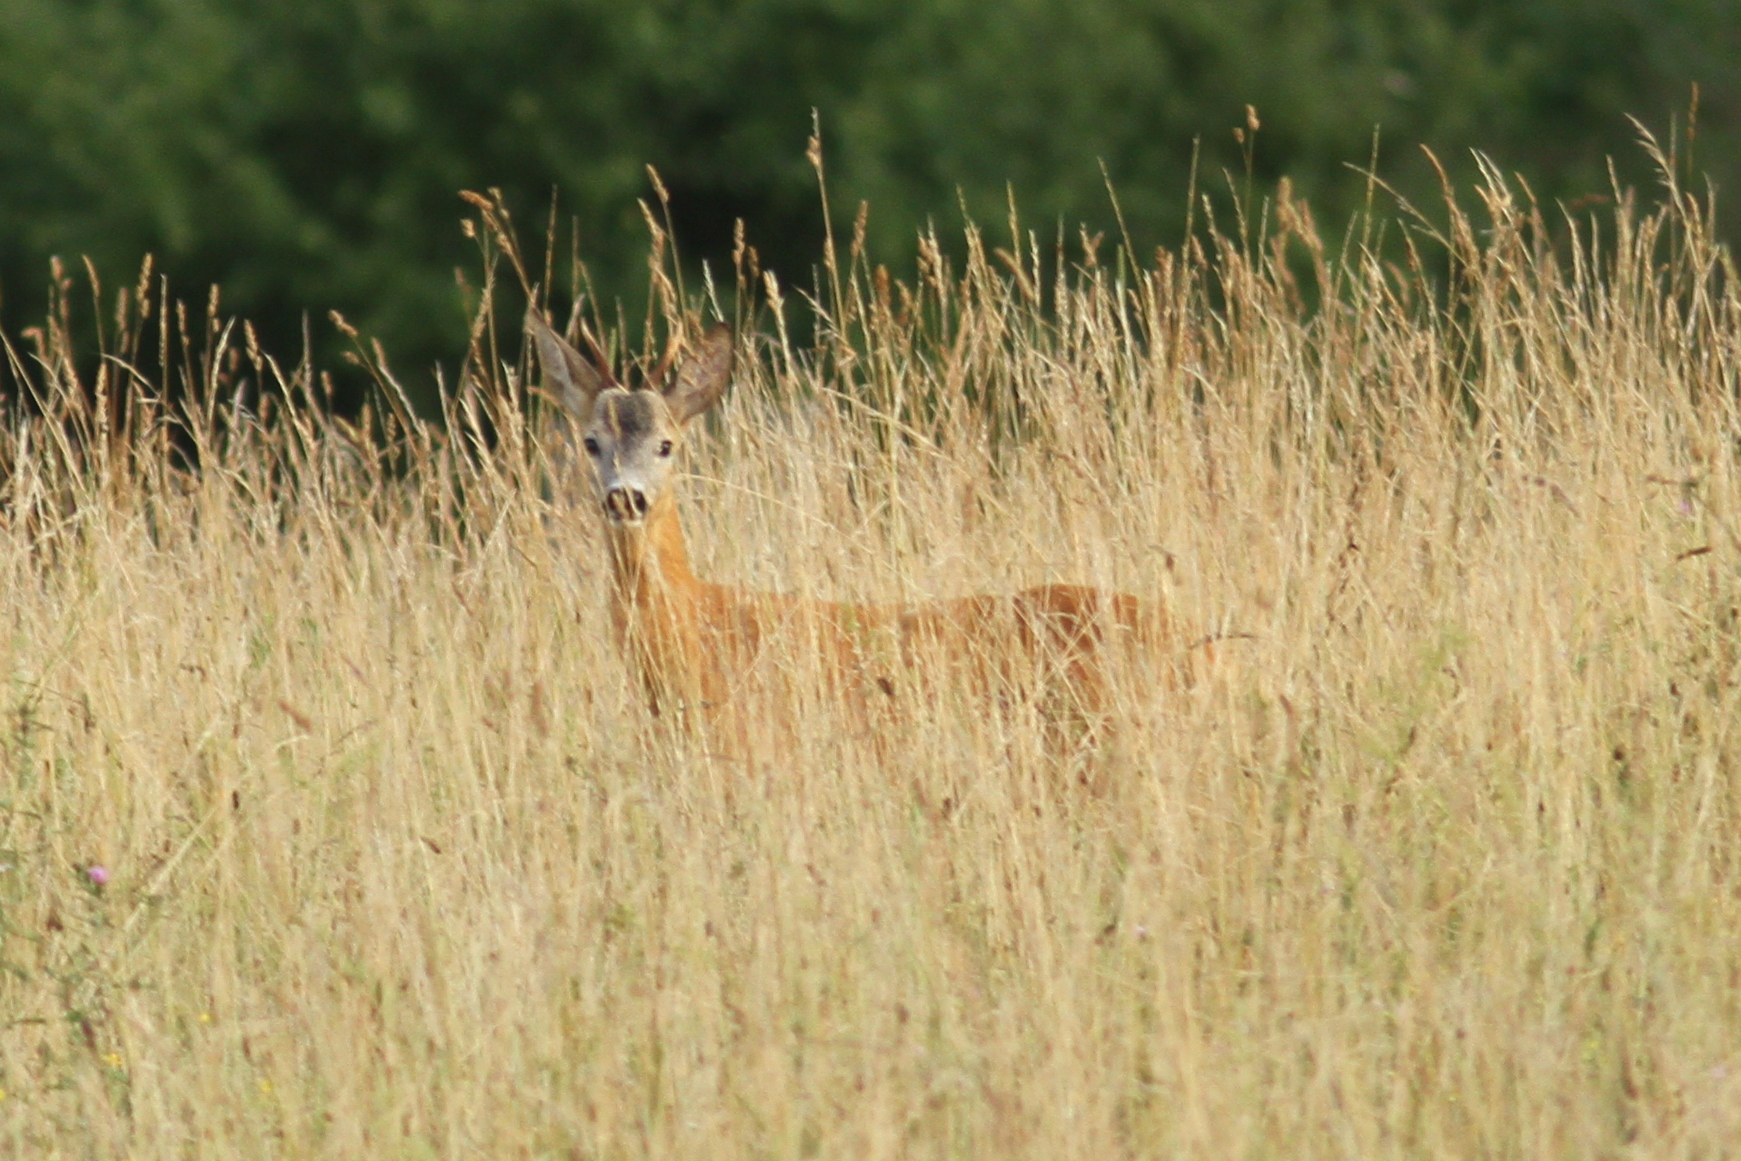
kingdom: Animalia
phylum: Chordata
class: Mammalia
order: Artiodactyla
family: Cervidae
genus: Capreolus
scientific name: Capreolus capreolus
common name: Western roe deer
